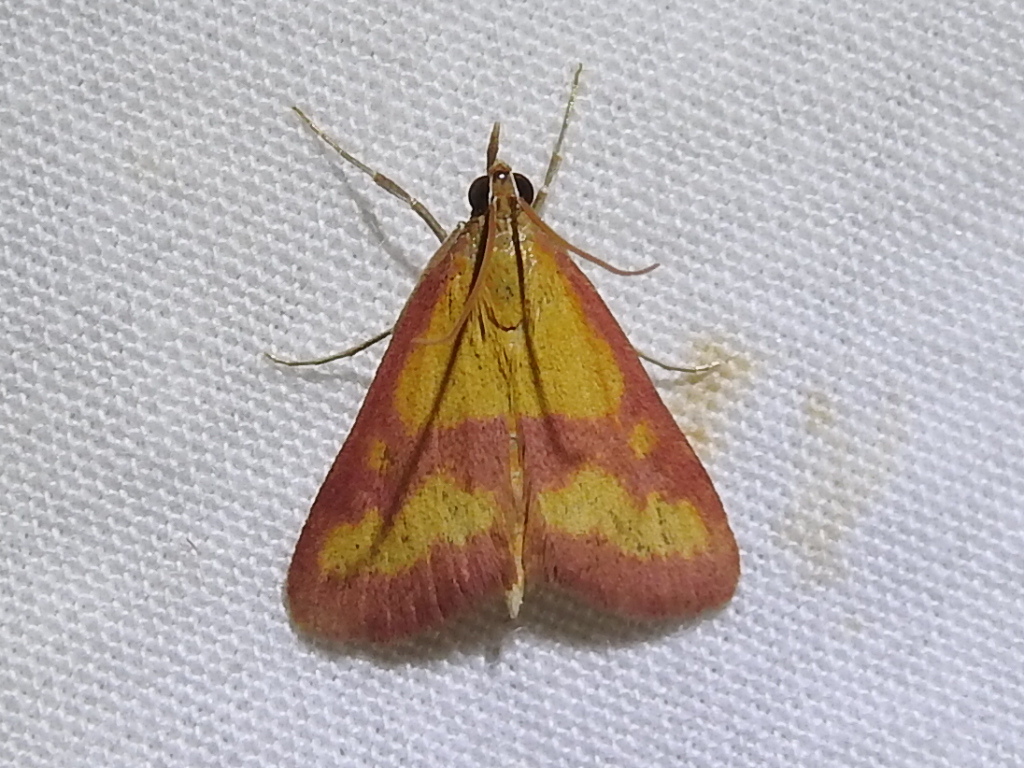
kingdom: Animalia
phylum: Arthropoda
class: Insecta
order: Lepidoptera
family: Crambidae
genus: Pyrausta
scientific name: Pyrausta laticlavia
